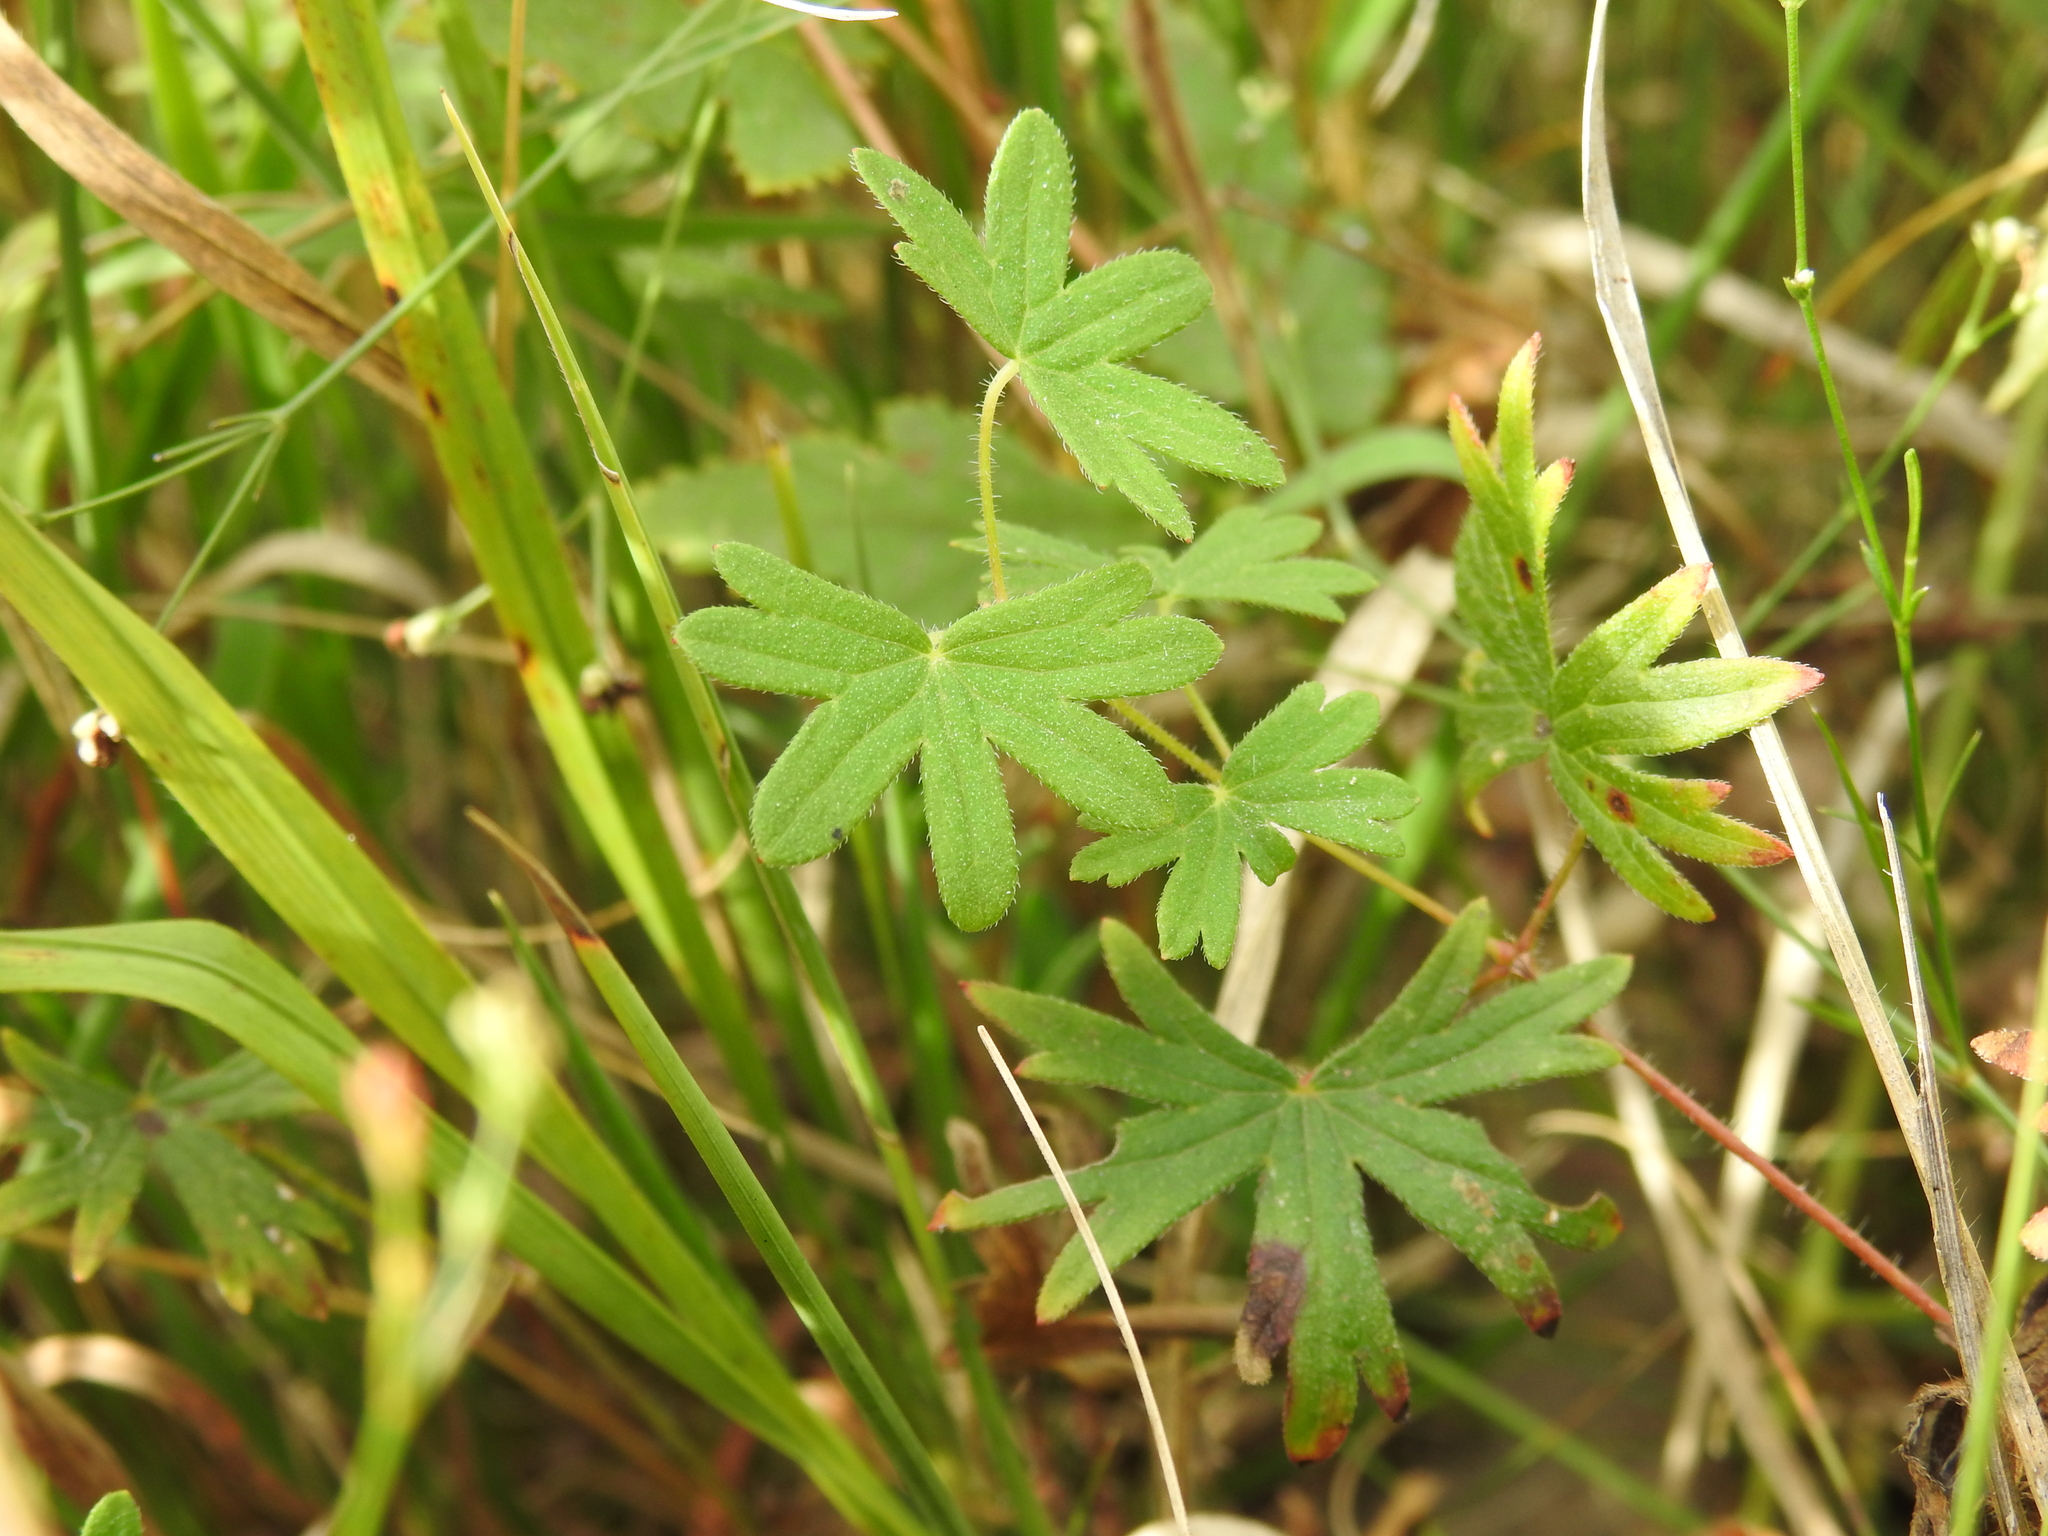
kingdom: Plantae
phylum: Tracheophyta
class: Magnoliopsida
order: Geraniales
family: Geraniaceae
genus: Geranium
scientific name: Geranium sanguineum
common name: Bloody crane's-bill
